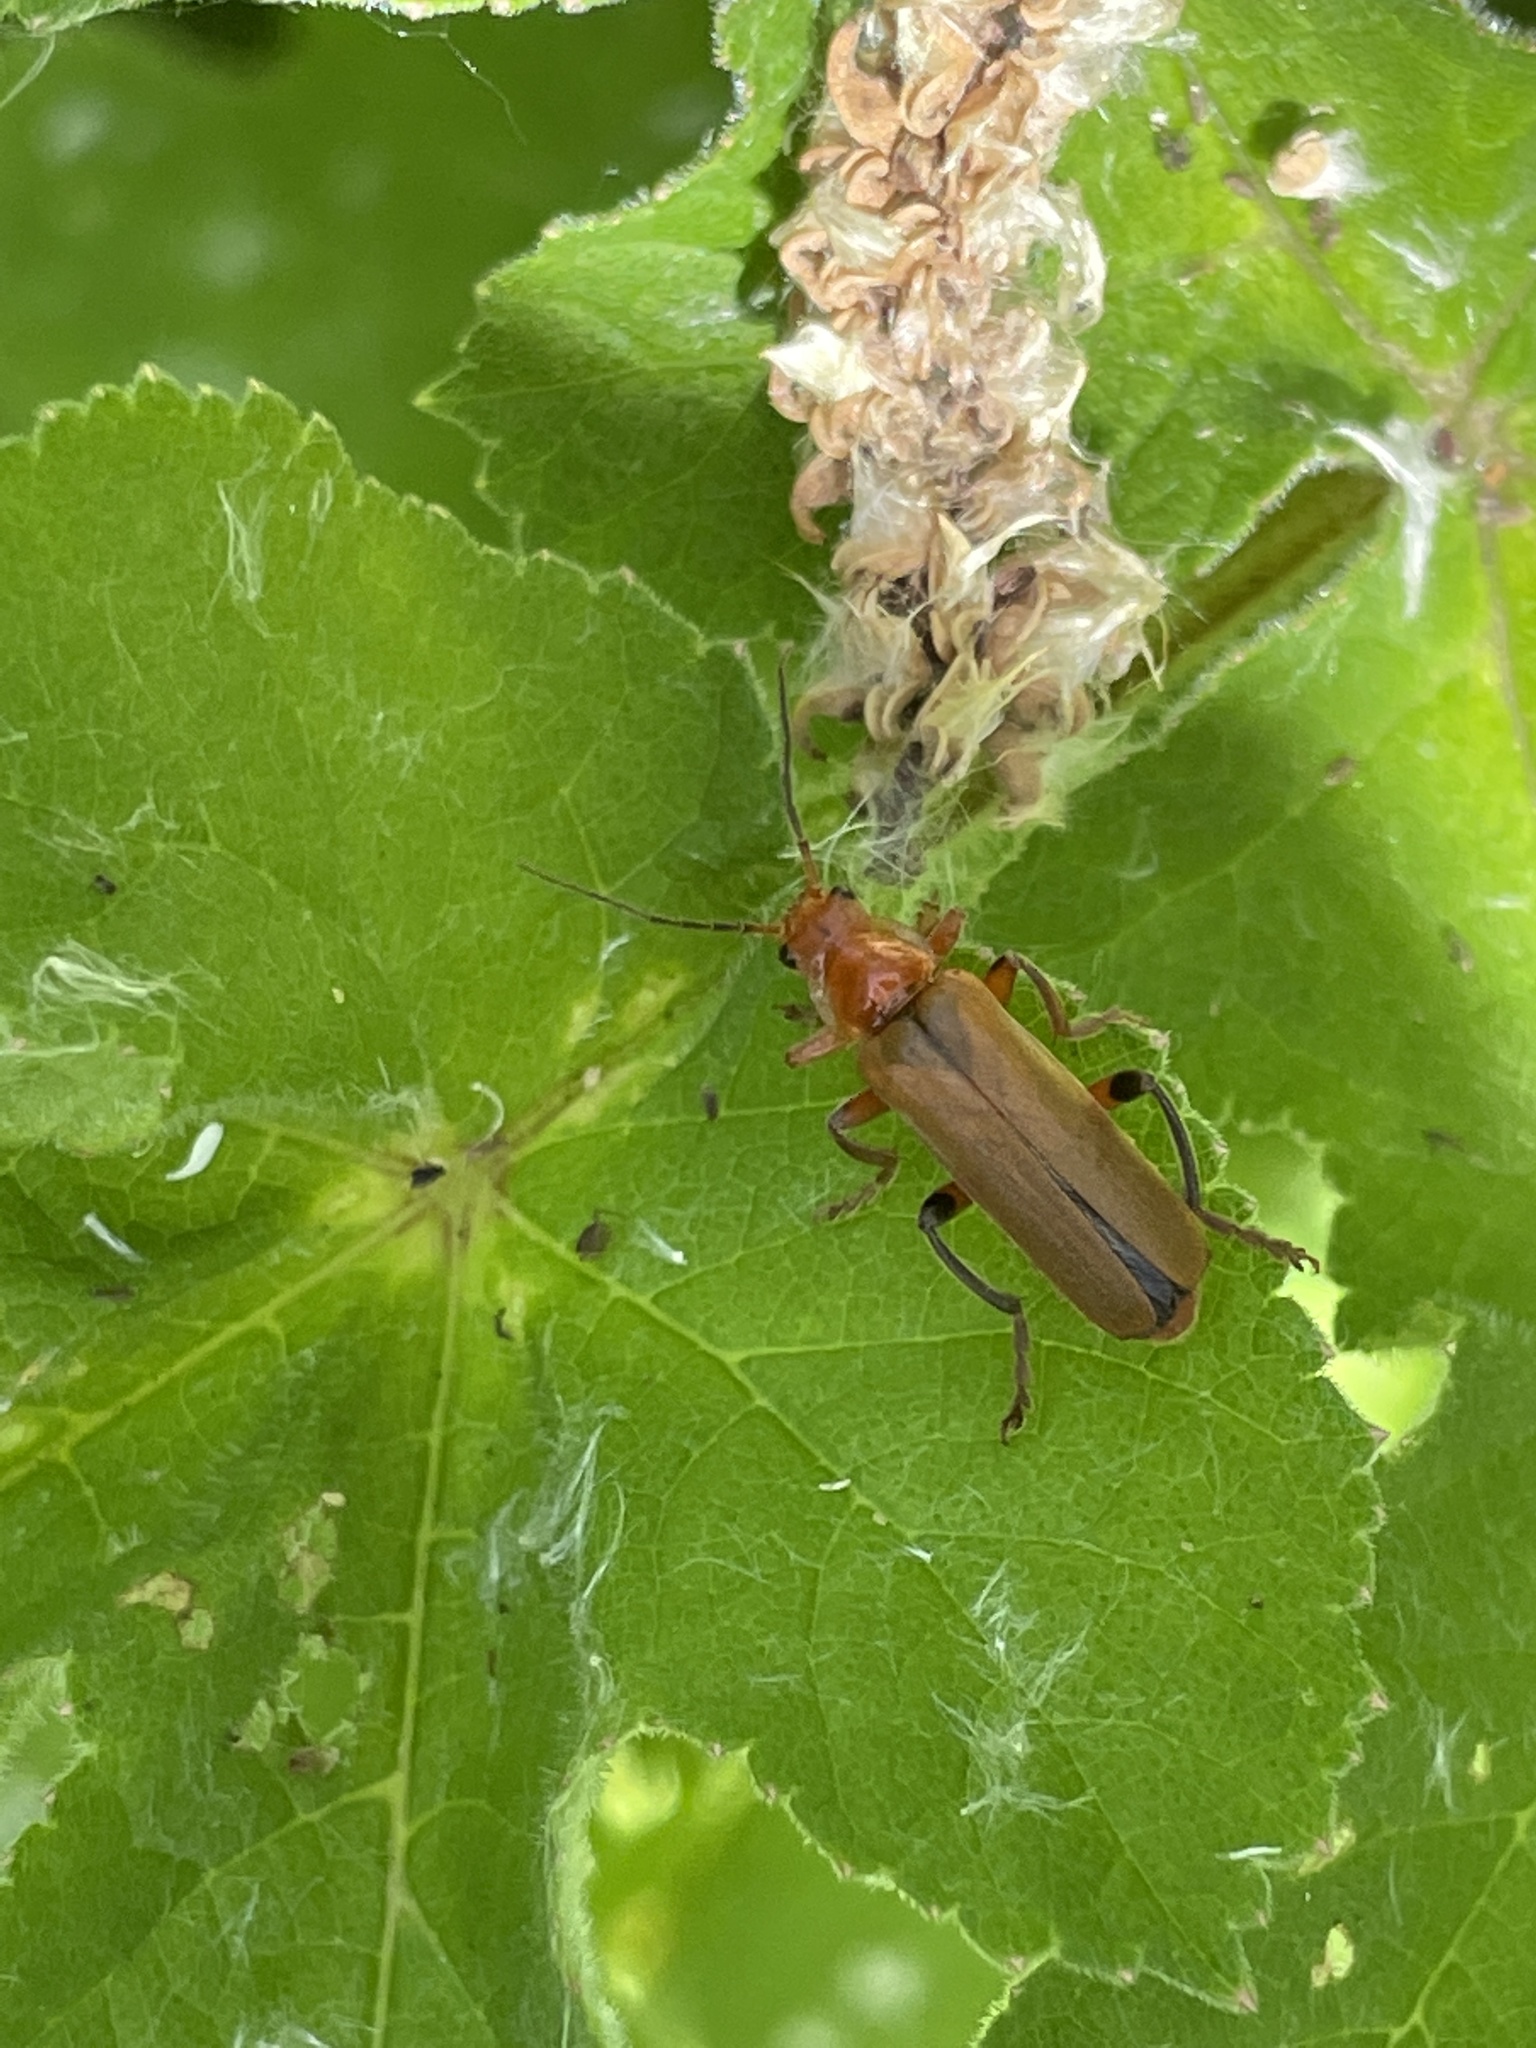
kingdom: Animalia
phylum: Arthropoda
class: Insecta
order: Coleoptera
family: Cantharidae
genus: Cantharis
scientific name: Cantharis livida
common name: Livid soldier beetle
